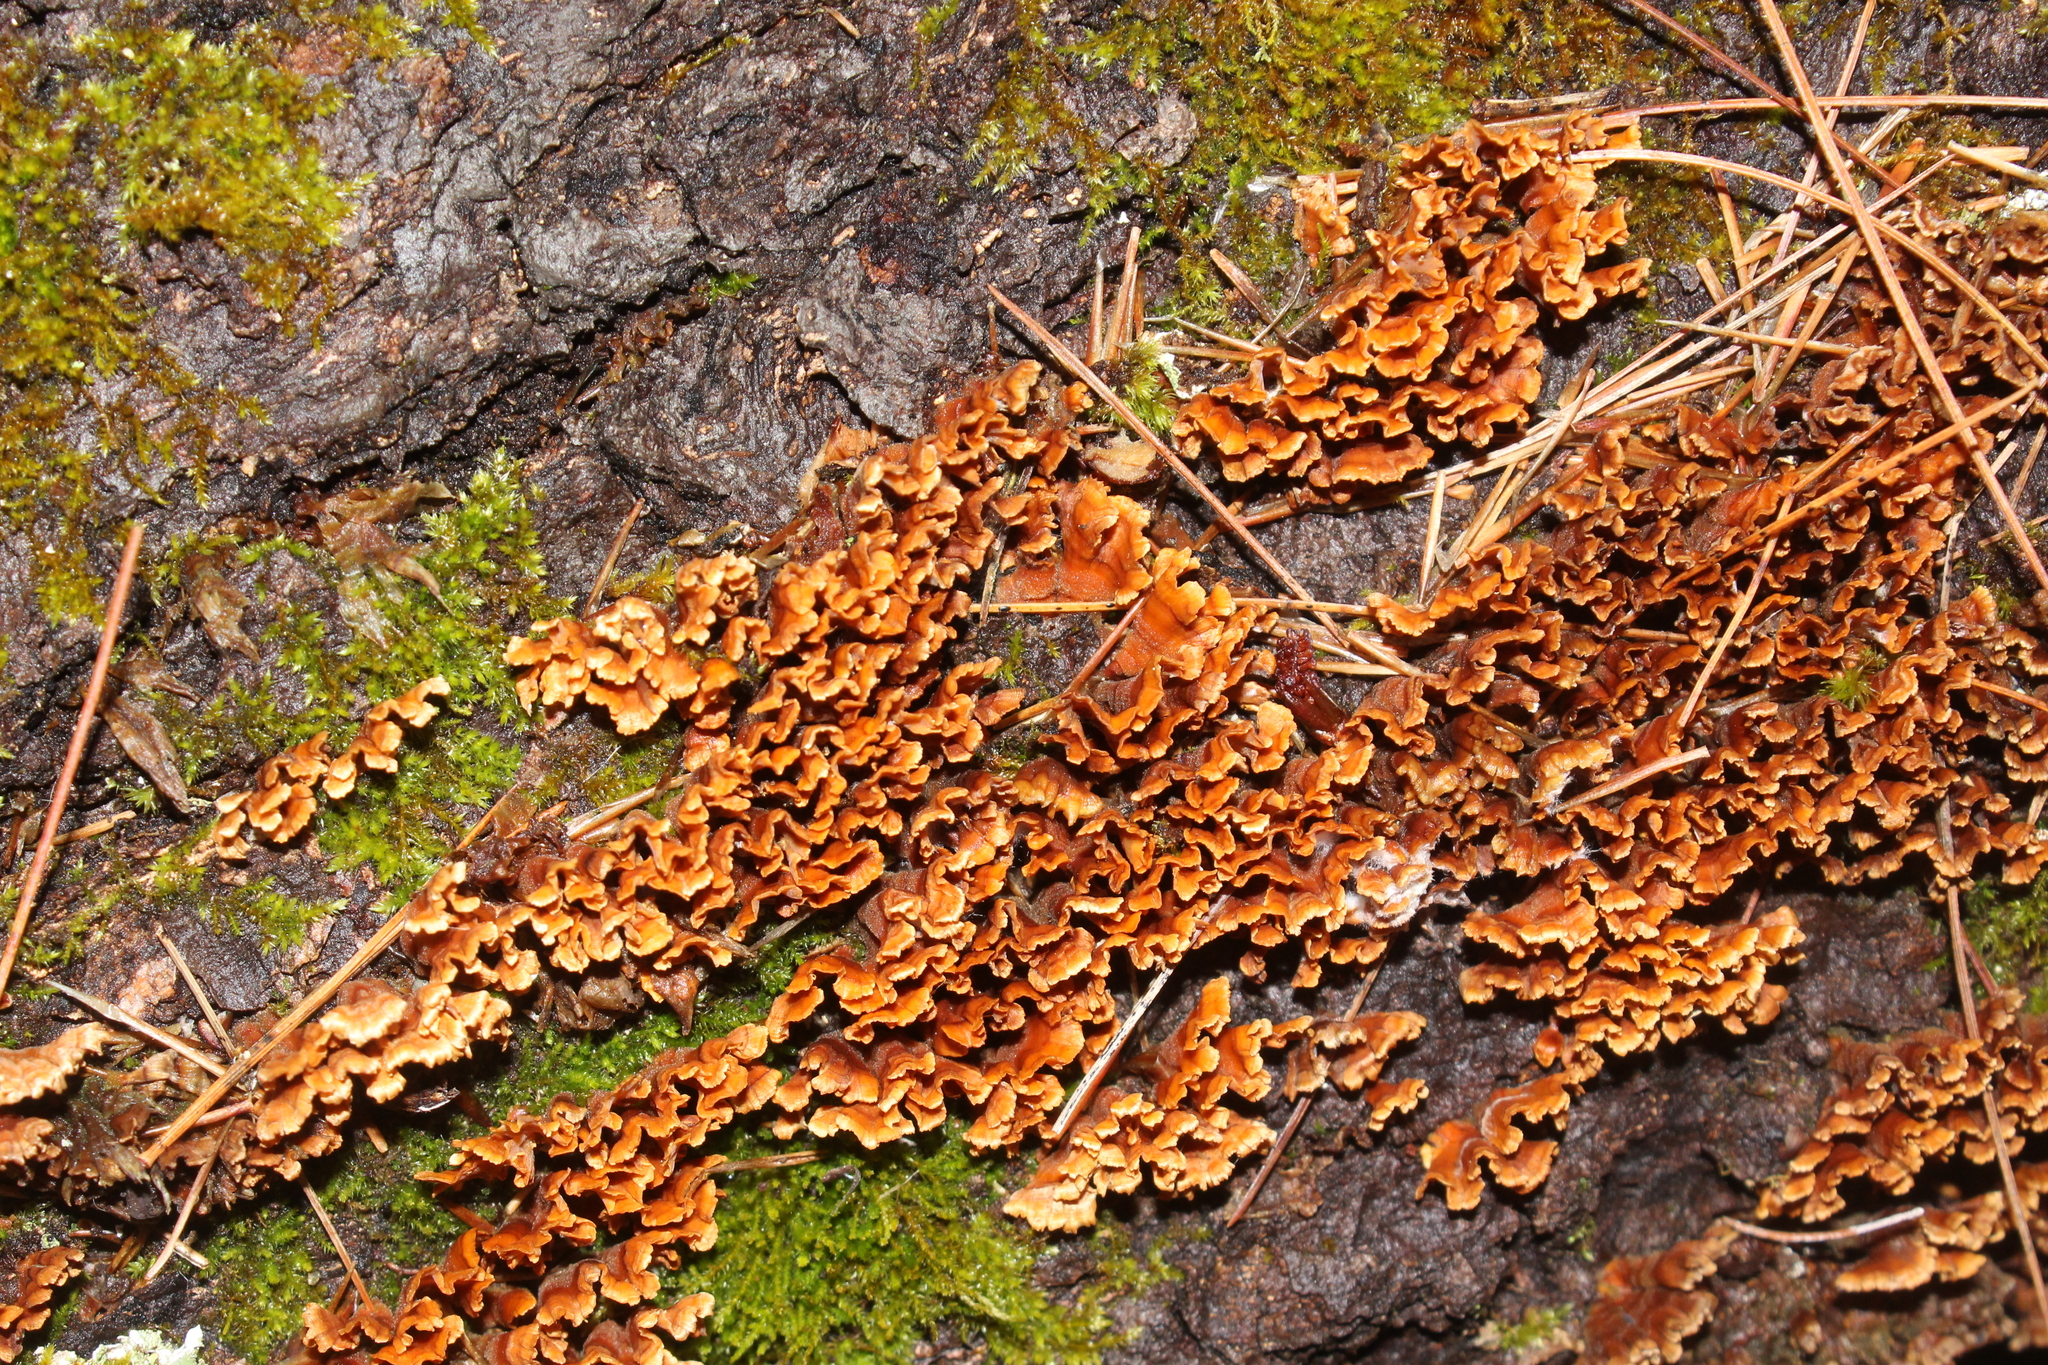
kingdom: Fungi
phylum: Basidiomycota
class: Agaricomycetes
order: Russulales
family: Stereaceae
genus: Stereum
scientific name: Stereum complicatum
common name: Crowded parchment
